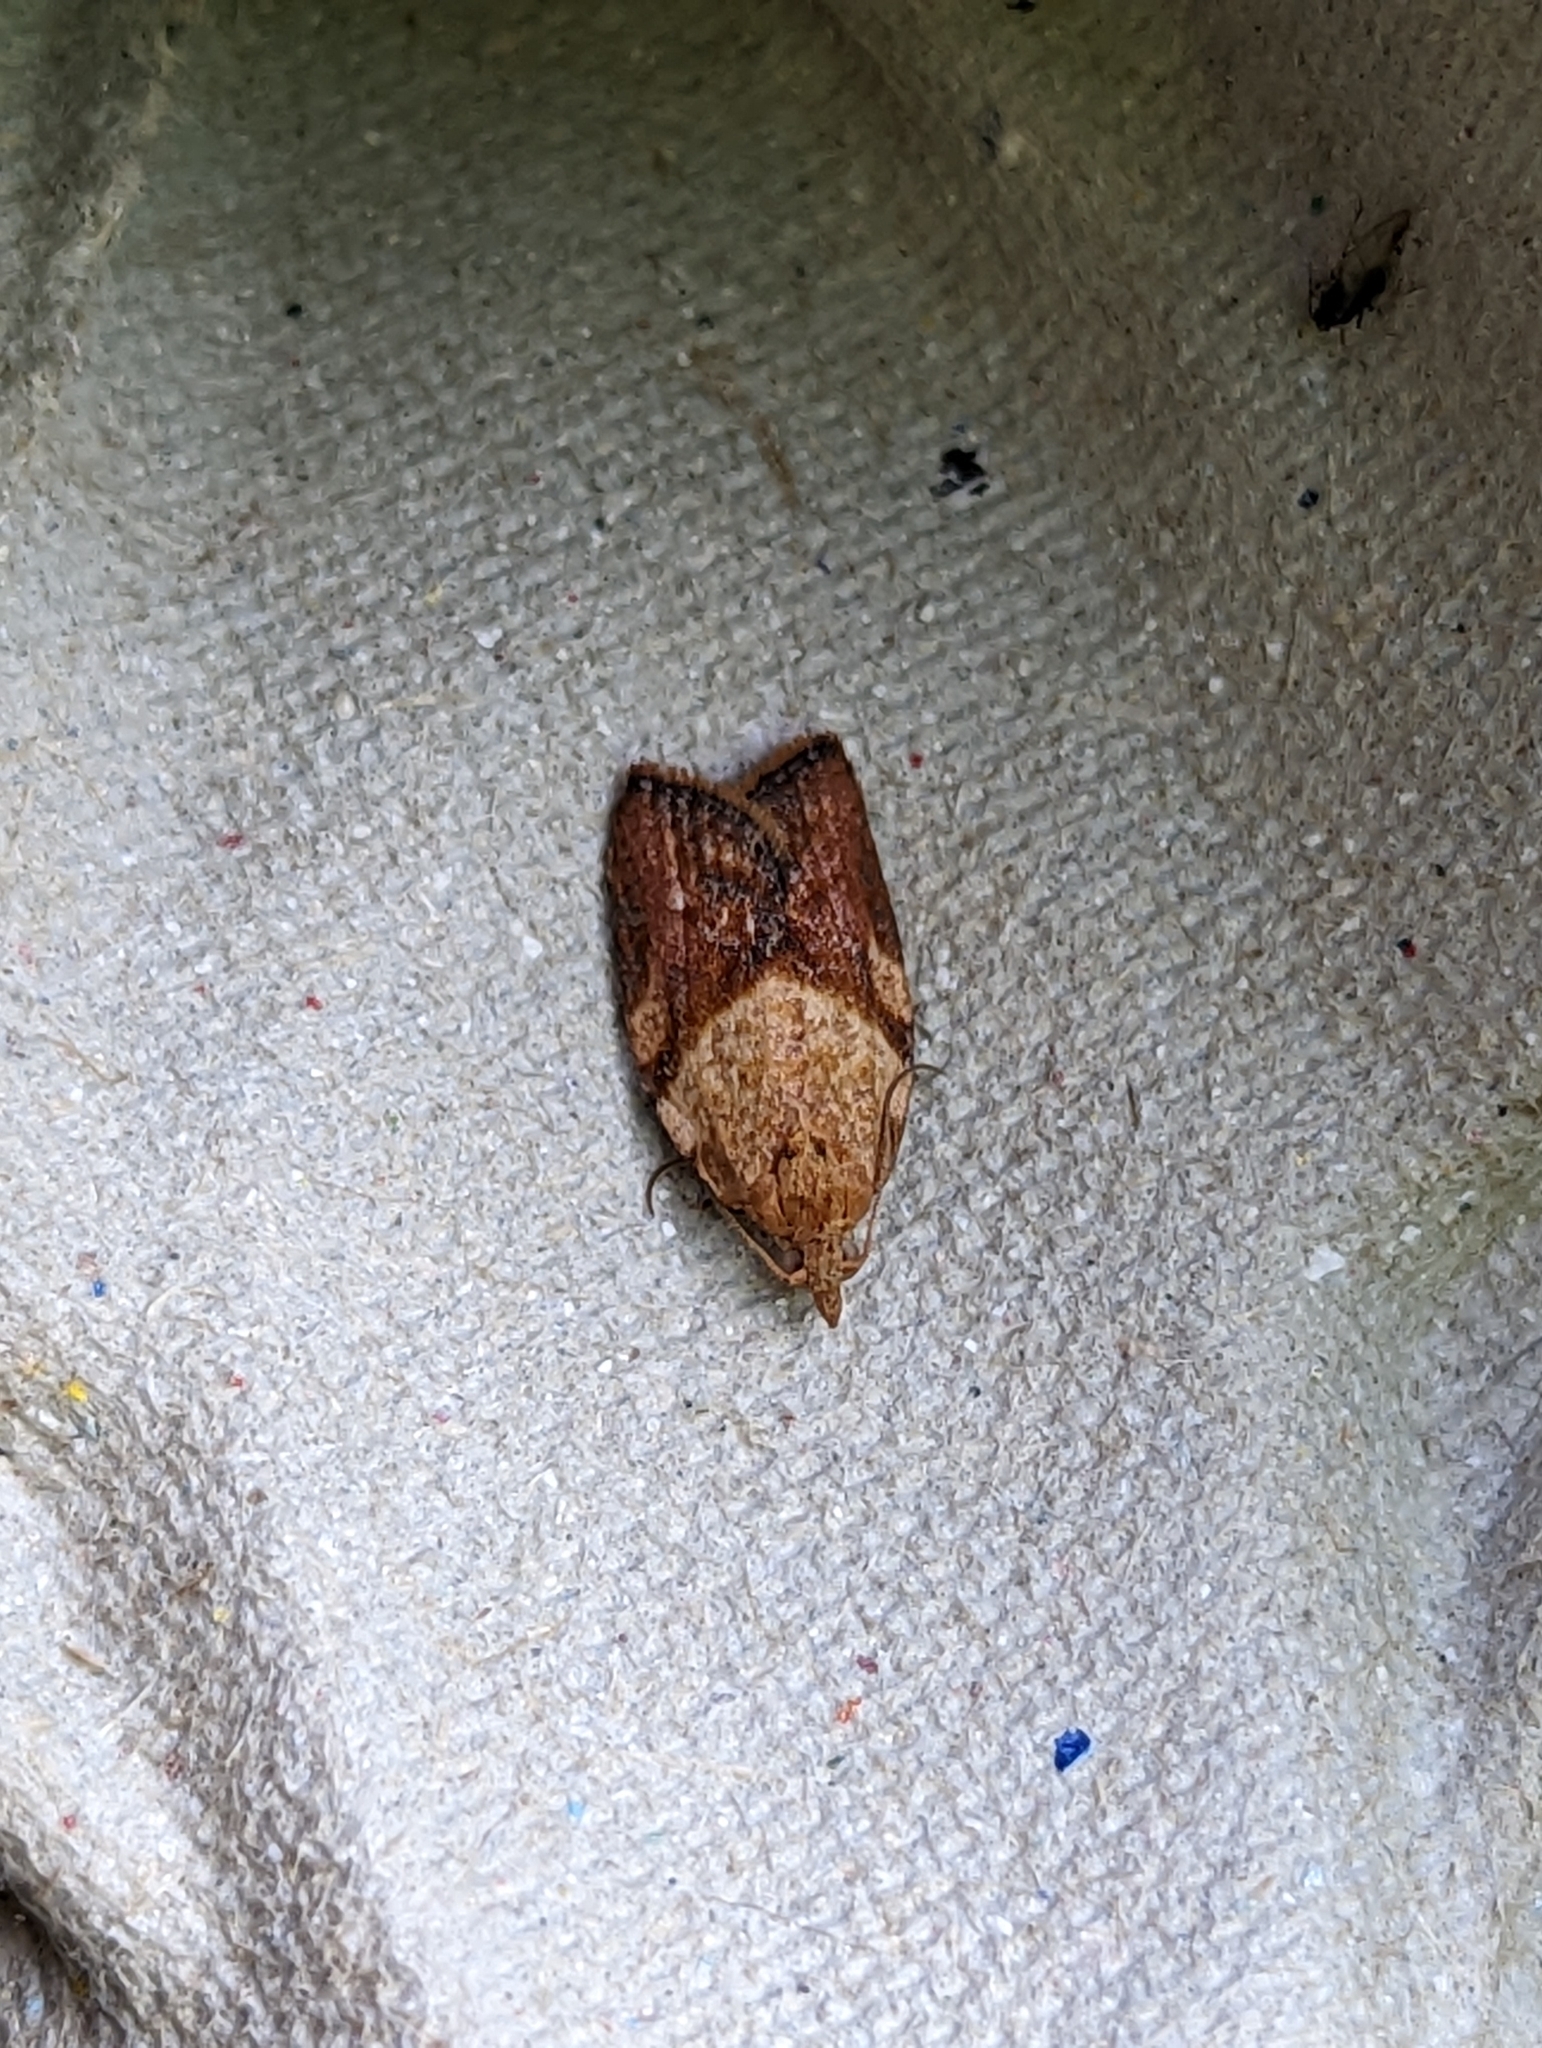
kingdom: Animalia
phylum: Arthropoda
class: Insecta
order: Lepidoptera
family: Tortricidae
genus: Epiphyas
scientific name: Epiphyas postvittana
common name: Light brown apple moth
